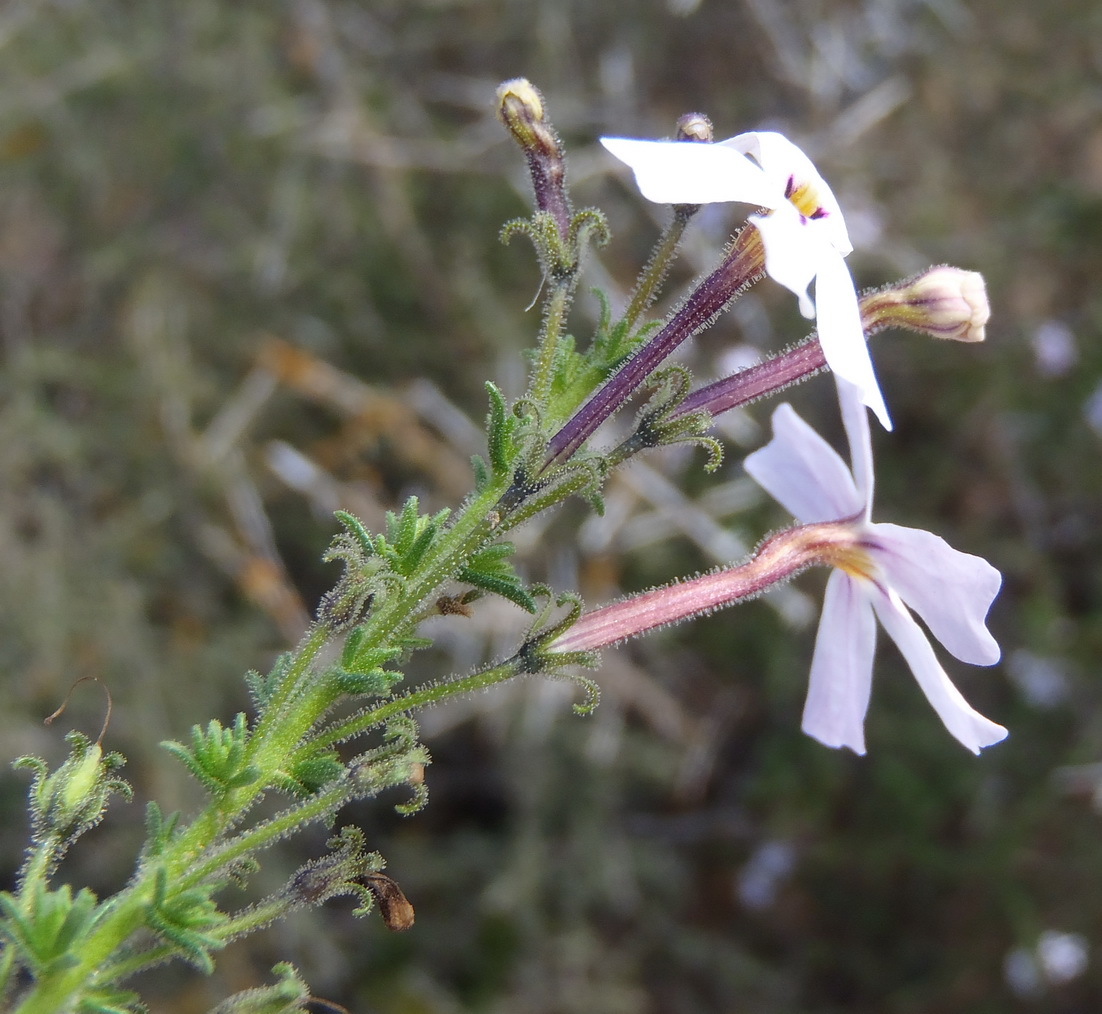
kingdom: Plantae
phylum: Tracheophyta
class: Magnoliopsida
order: Lamiales
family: Scrophulariaceae
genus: Jamesbrittenia
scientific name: Jamesbrittenia tortuosa
